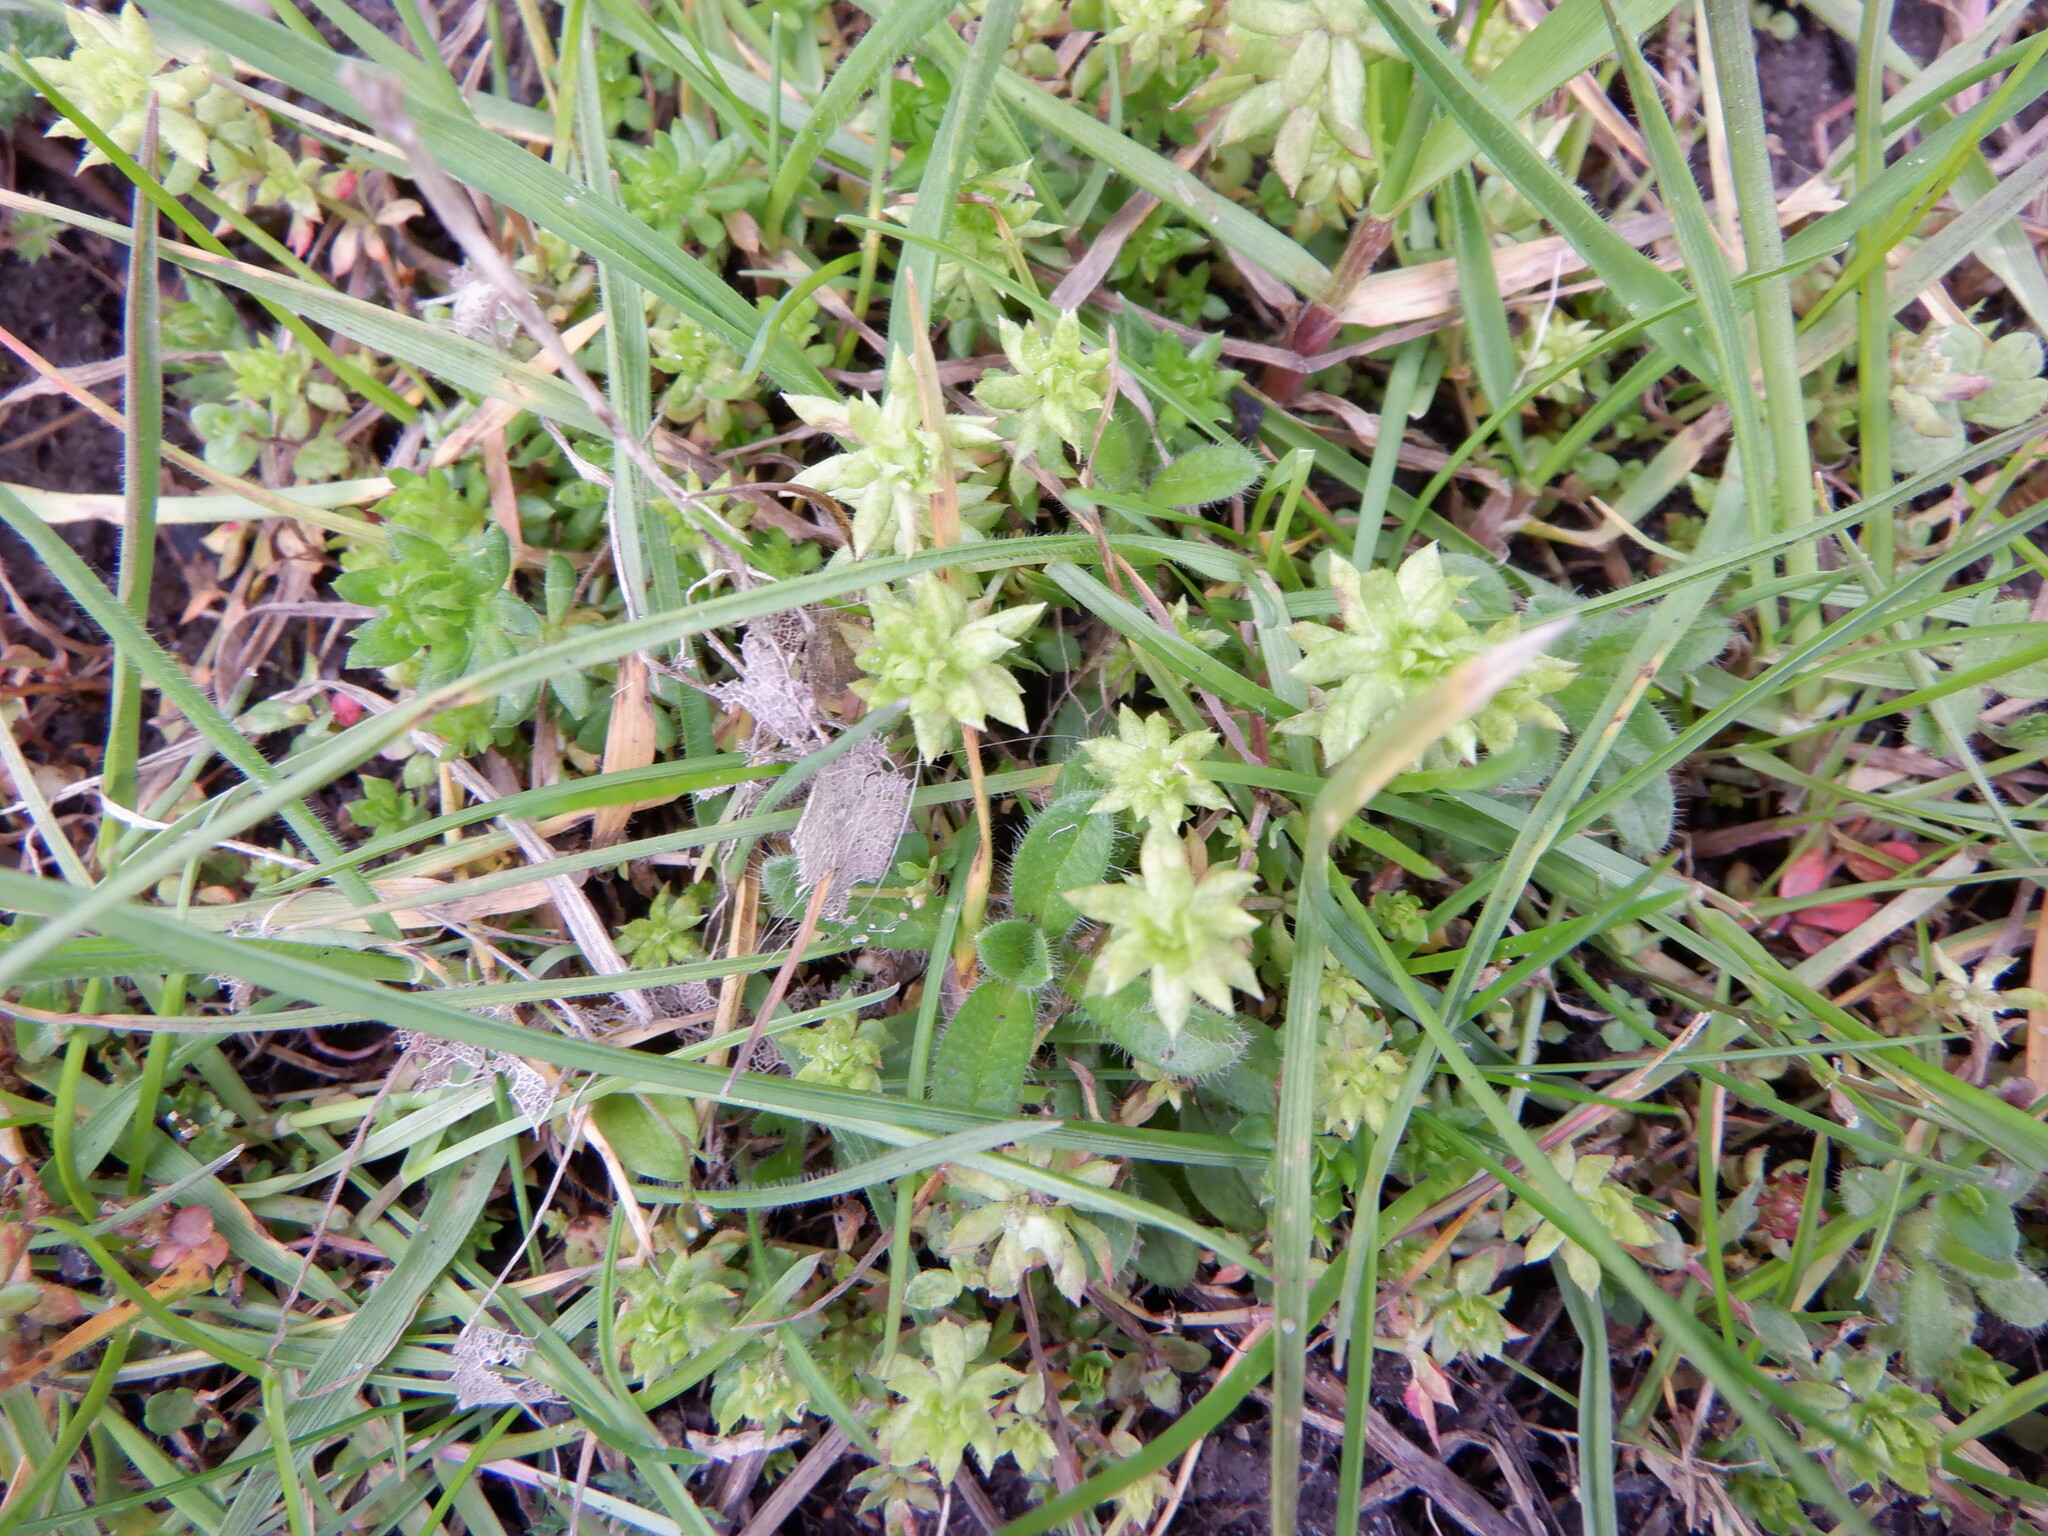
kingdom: Plantae
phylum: Tracheophyta
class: Magnoliopsida
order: Gentianales
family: Rubiaceae
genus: Sherardia
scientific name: Sherardia arvensis
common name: Field madder
